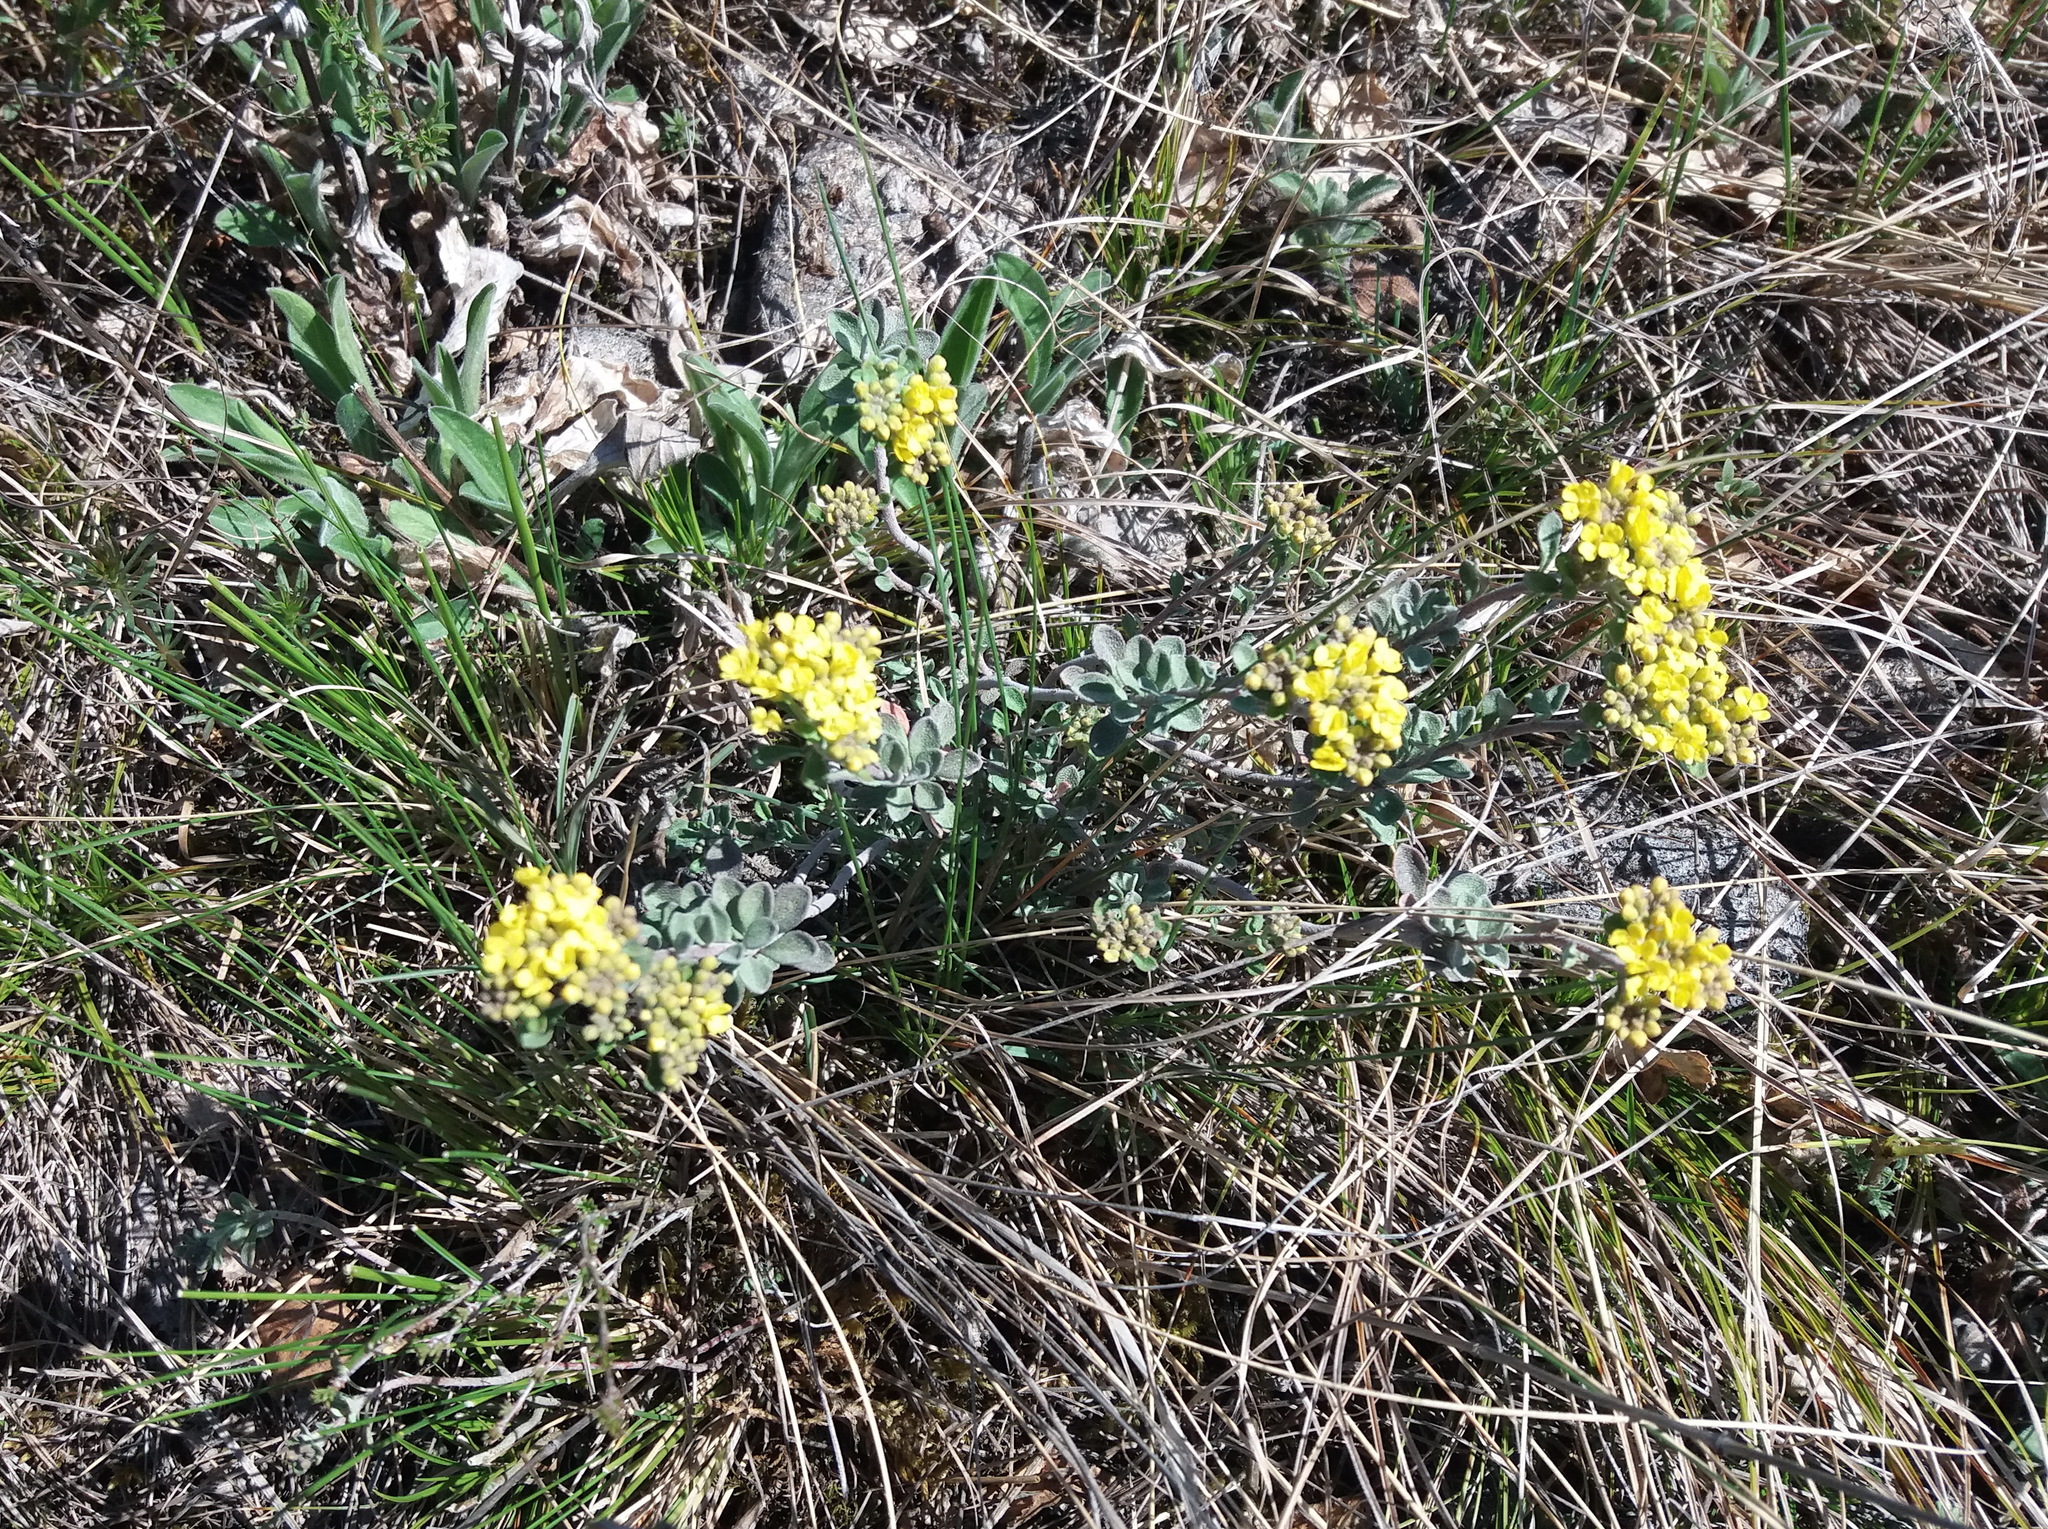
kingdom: Plantae
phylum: Tracheophyta
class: Magnoliopsida
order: Brassicales
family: Brassicaceae
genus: Odontarrhena
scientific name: Odontarrhena obovata
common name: American alyssum
